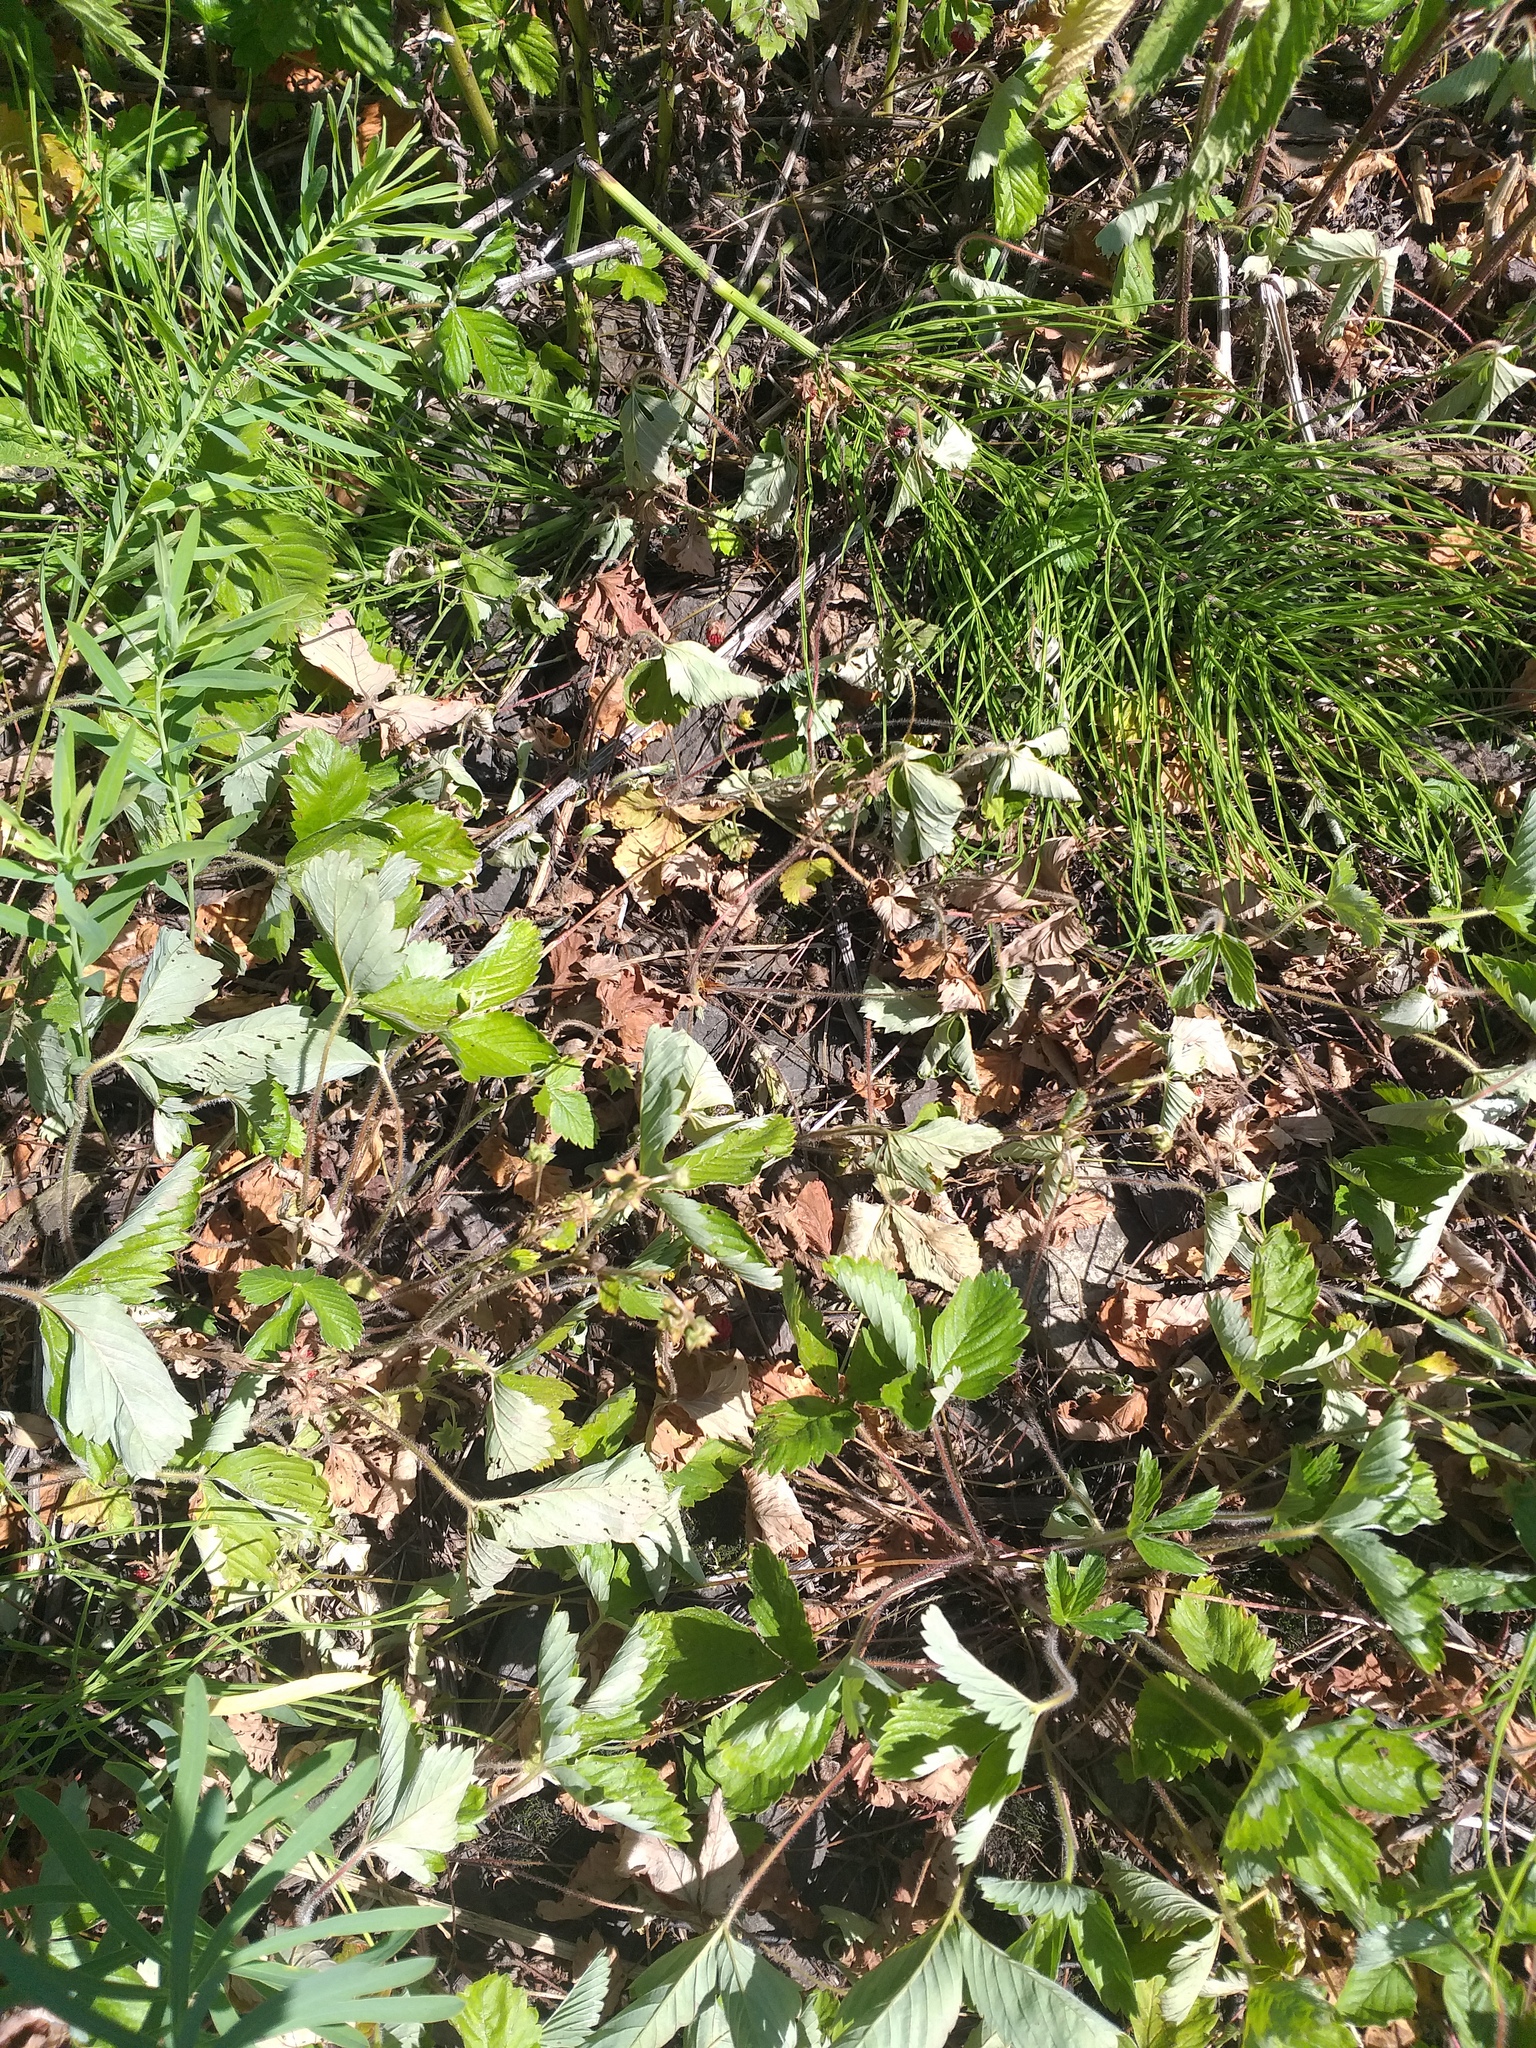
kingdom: Plantae
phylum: Tracheophyta
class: Magnoliopsida
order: Rosales
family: Rosaceae
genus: Fragaria
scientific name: Fragaria vesca
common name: Wild strawberry
